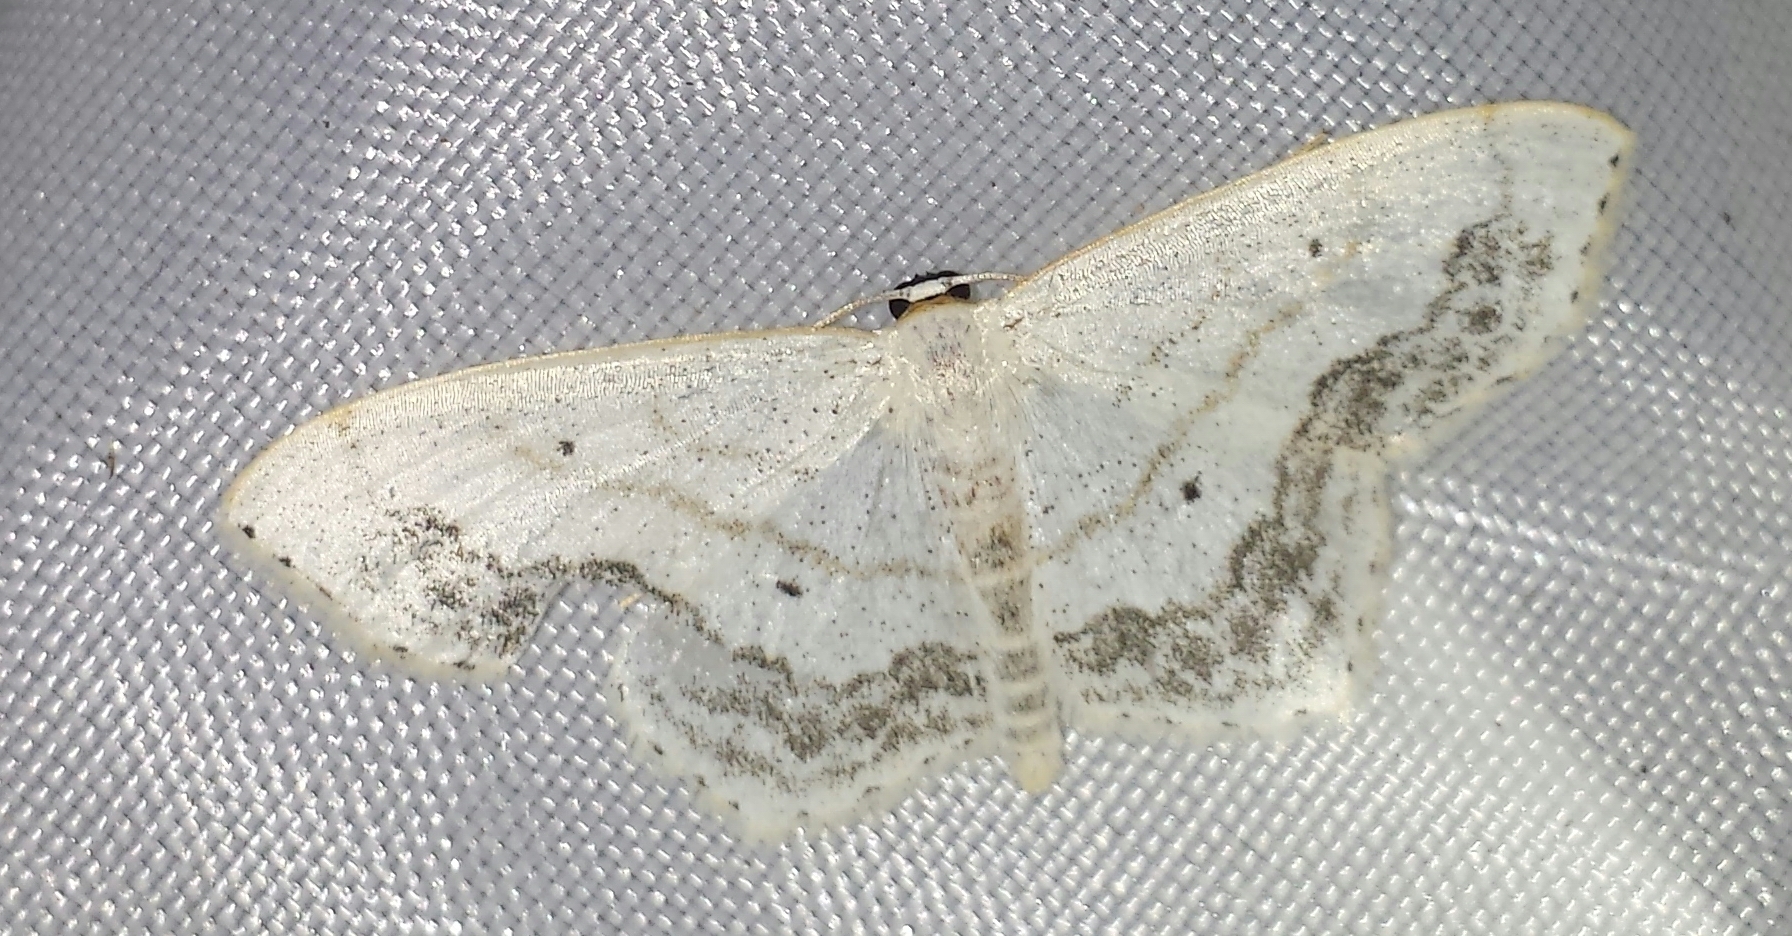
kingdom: Animalia
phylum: Arthropoda
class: Insecta
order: Lepidoptera
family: Geometridae
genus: Scopula
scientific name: Scopula limboundata
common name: Large lace border
